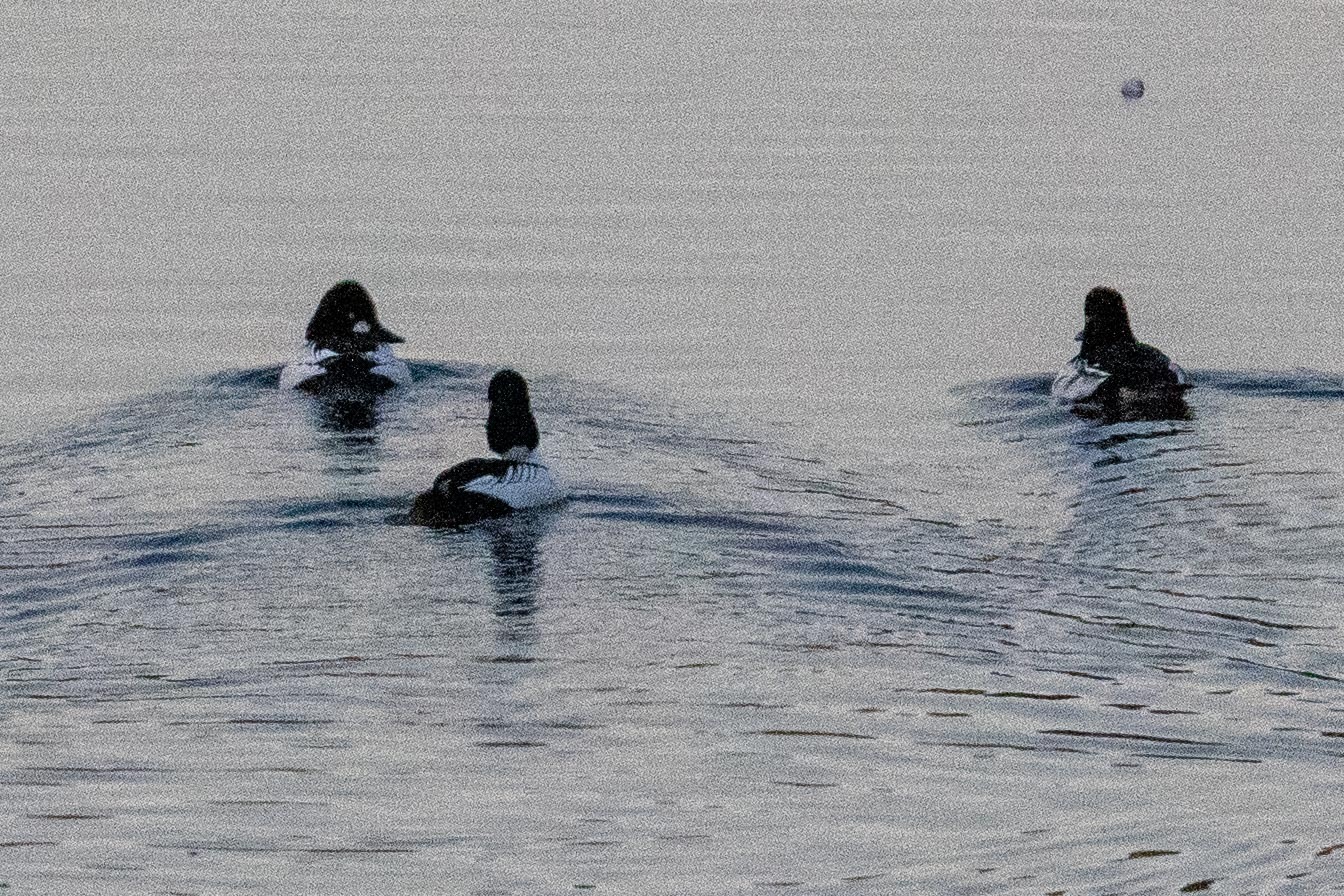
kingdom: Animalia
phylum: Chordata
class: Aves
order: Anseriformes
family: Anatidae
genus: Bucephala
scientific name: Bucephala clangula
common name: Common goldeneye
